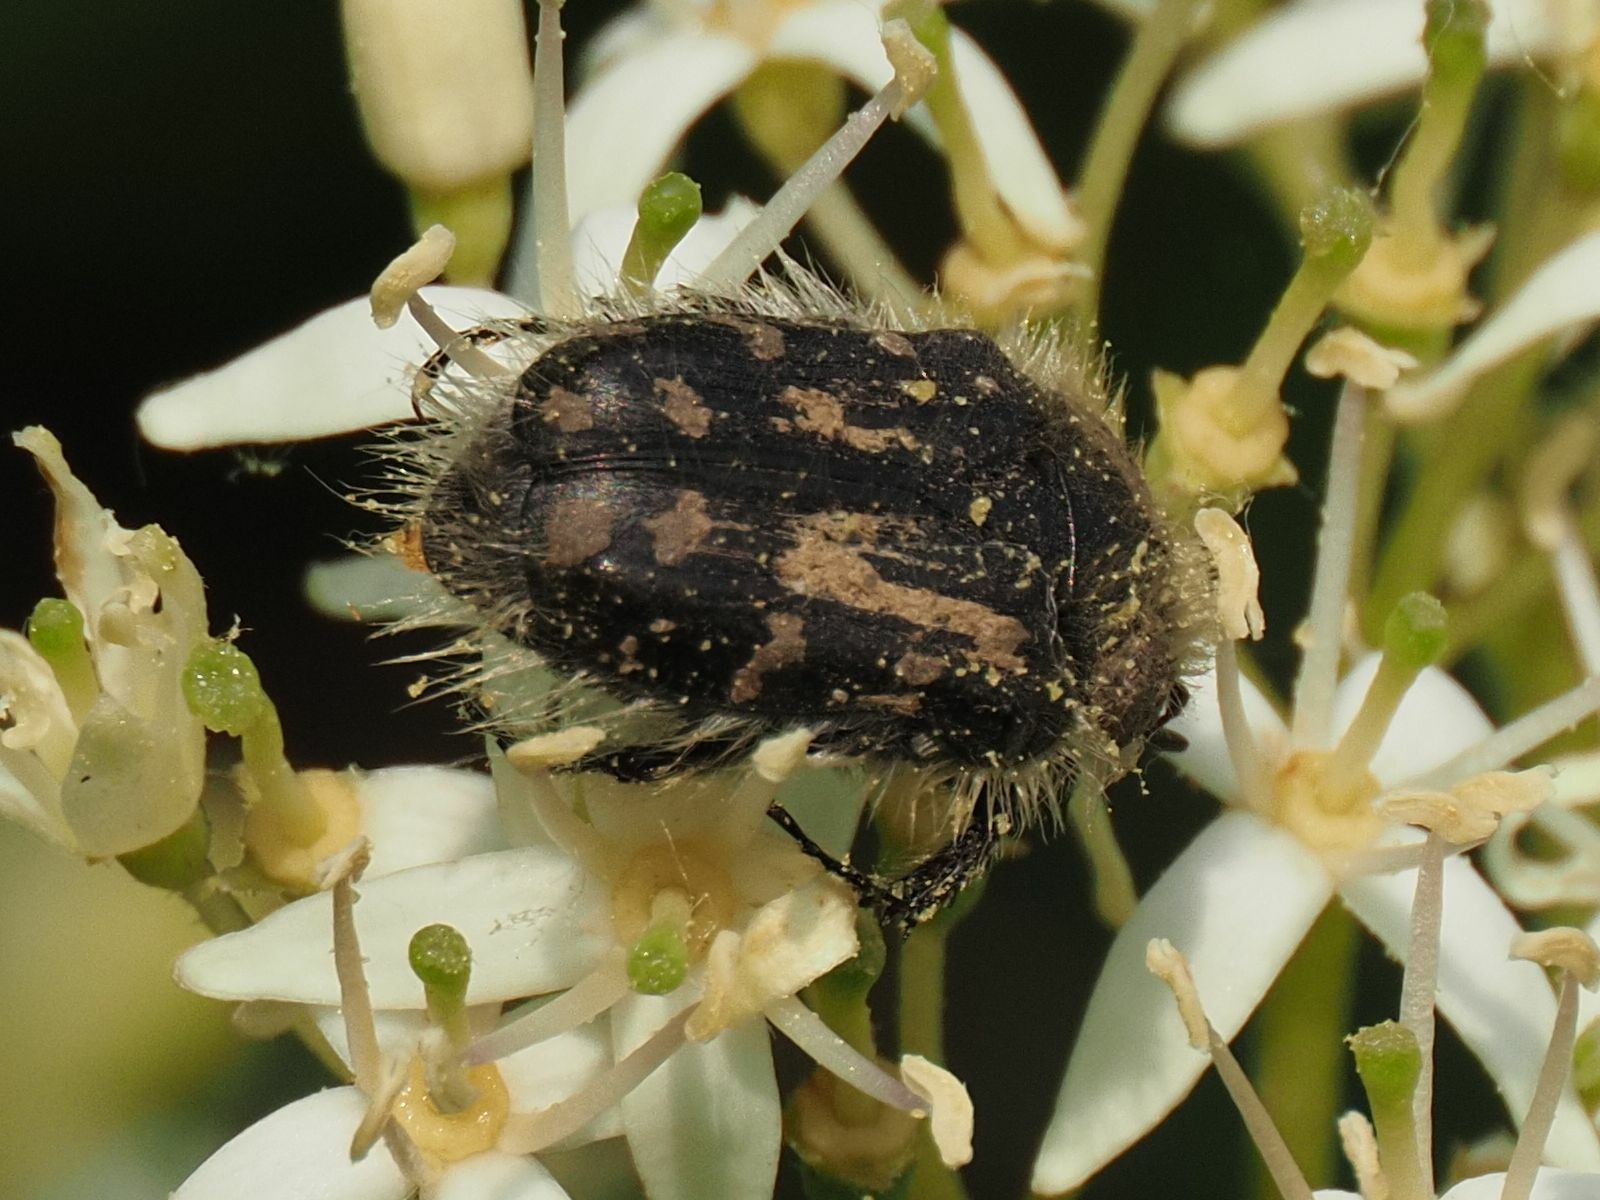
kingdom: Animalia
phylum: Arthropoda
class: Insecta
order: Coleoptera
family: Scarabaeidae
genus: Tropinota
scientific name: Tropinota hirta
